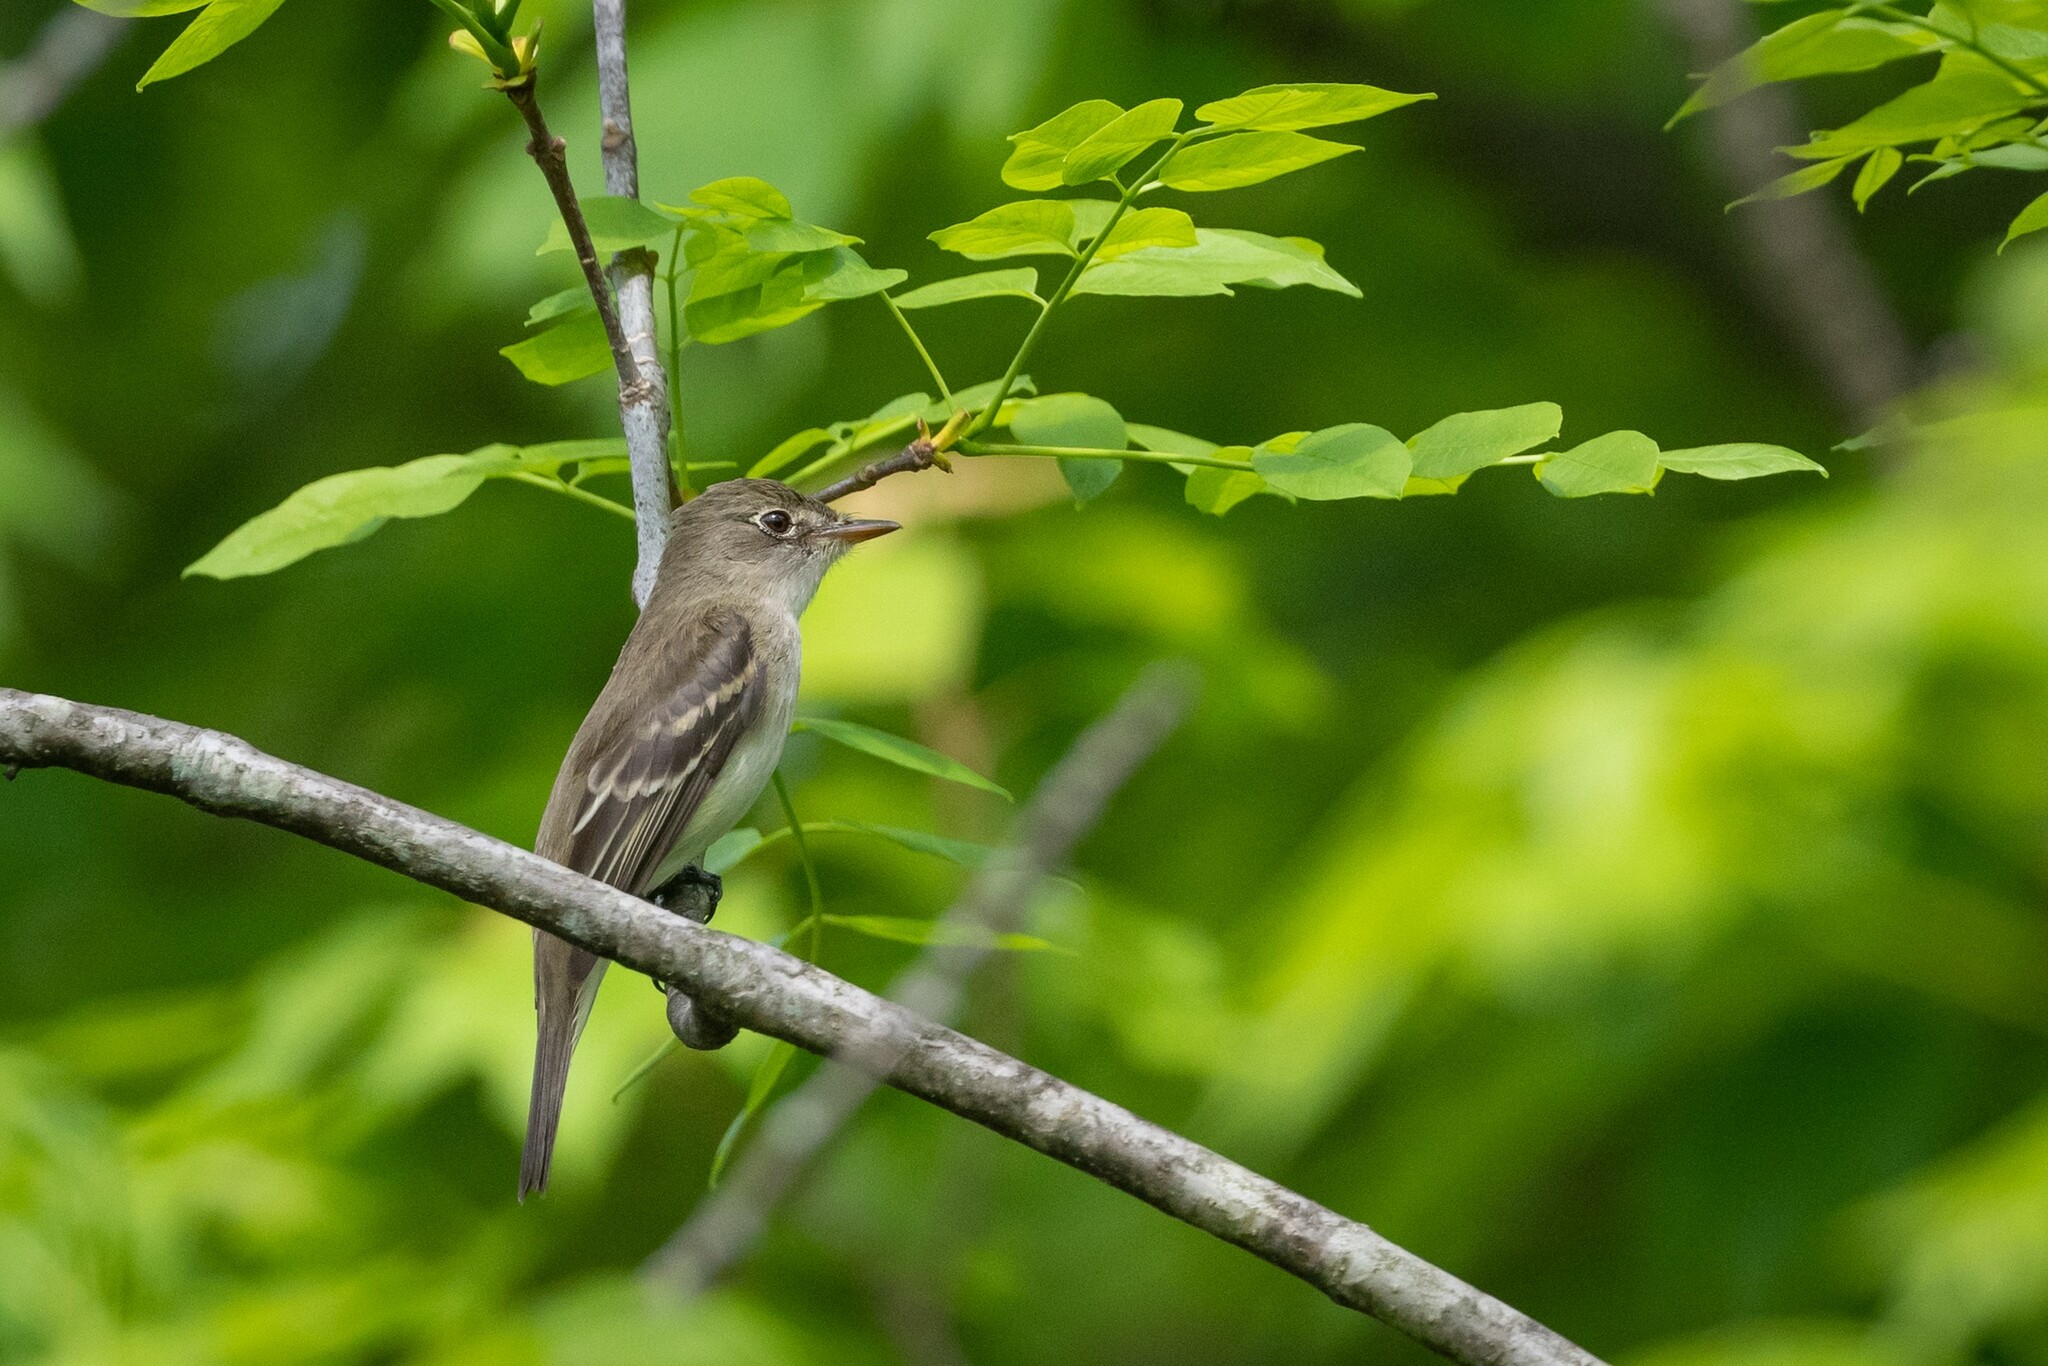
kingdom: Animalia
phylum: Chordata
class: Aves
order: Passeriformes
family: Tyrannidae
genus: Empidonax
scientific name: Empidonax alnorum
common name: Alder flycatcher
